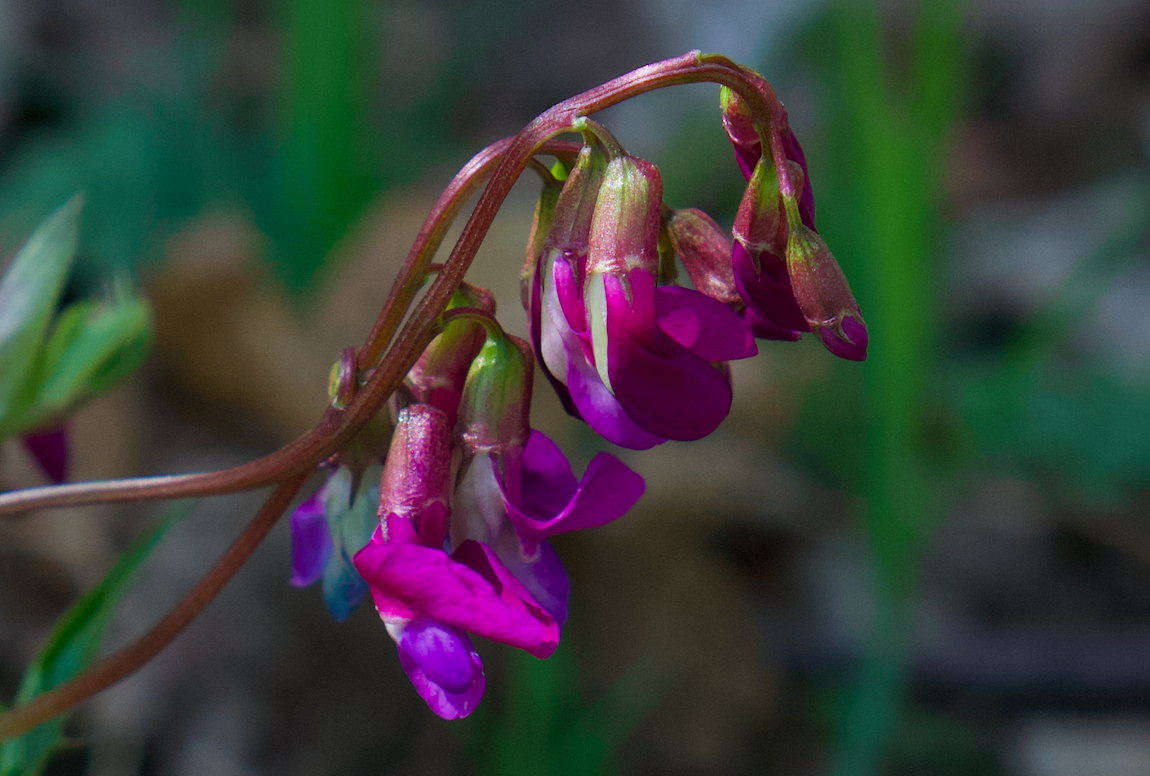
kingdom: Plantae
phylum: Tracheophyta
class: Magnoliopsida
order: Fabales
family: Fabaceae
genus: Lathyrus
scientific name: Lathyrus vernus
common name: Spring pea
